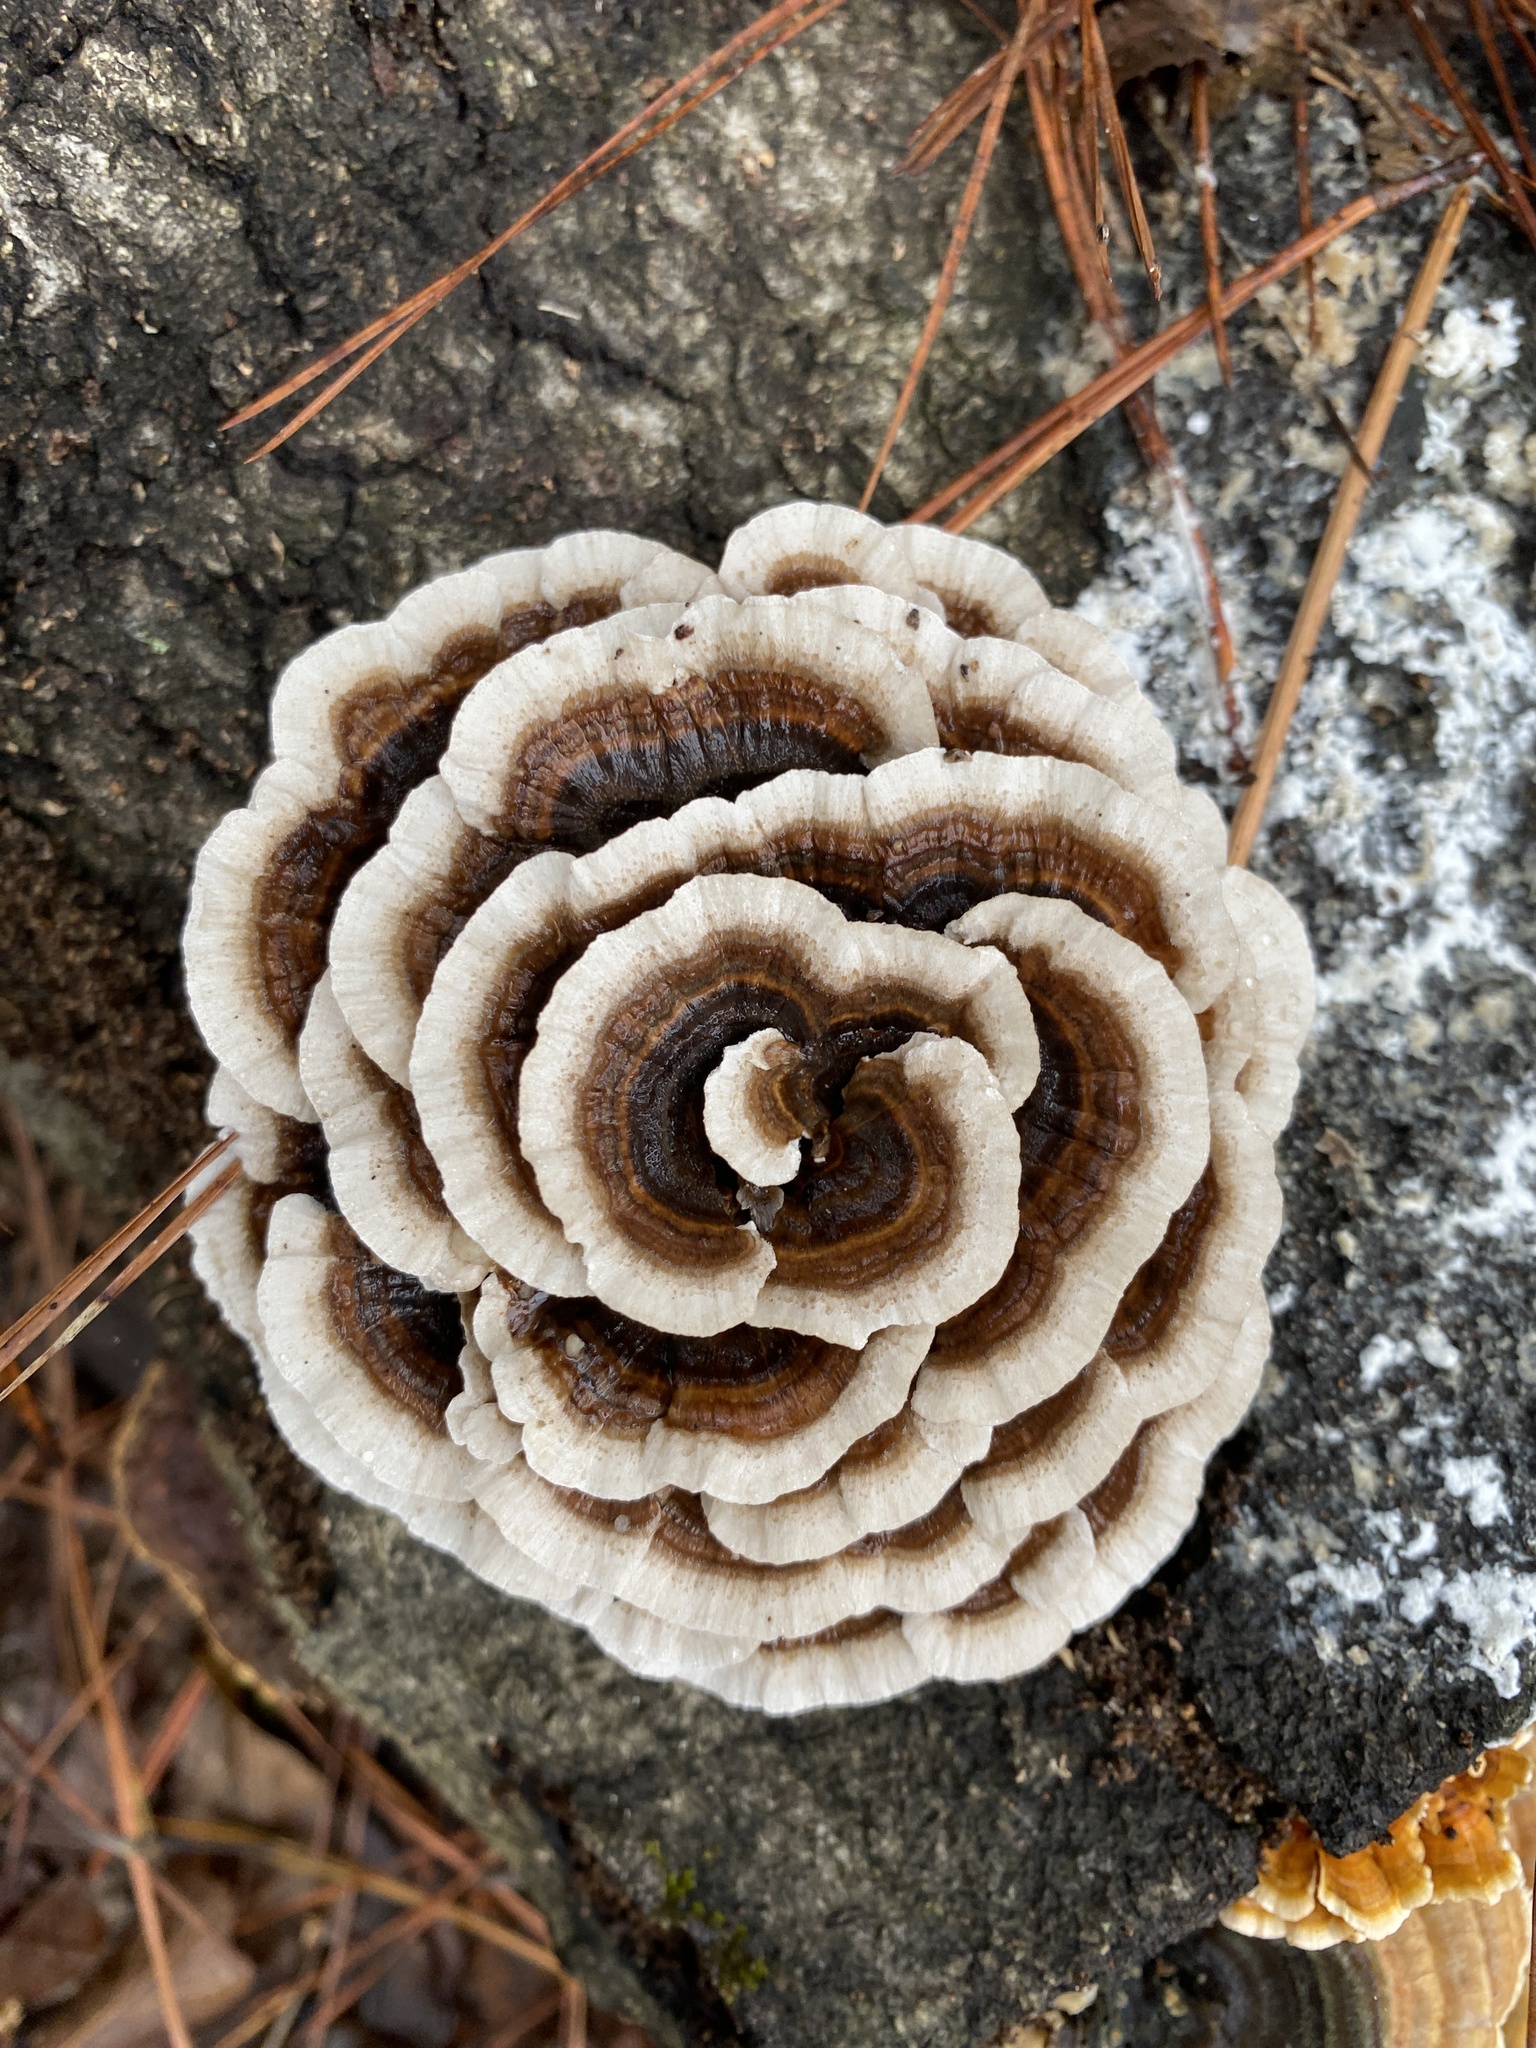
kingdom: Fungi
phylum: Basidiomycota
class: Agaricomycetes
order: Polyporales
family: Polyporaceae
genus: Trametes
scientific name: Trametes versicolor
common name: Turkeytail
